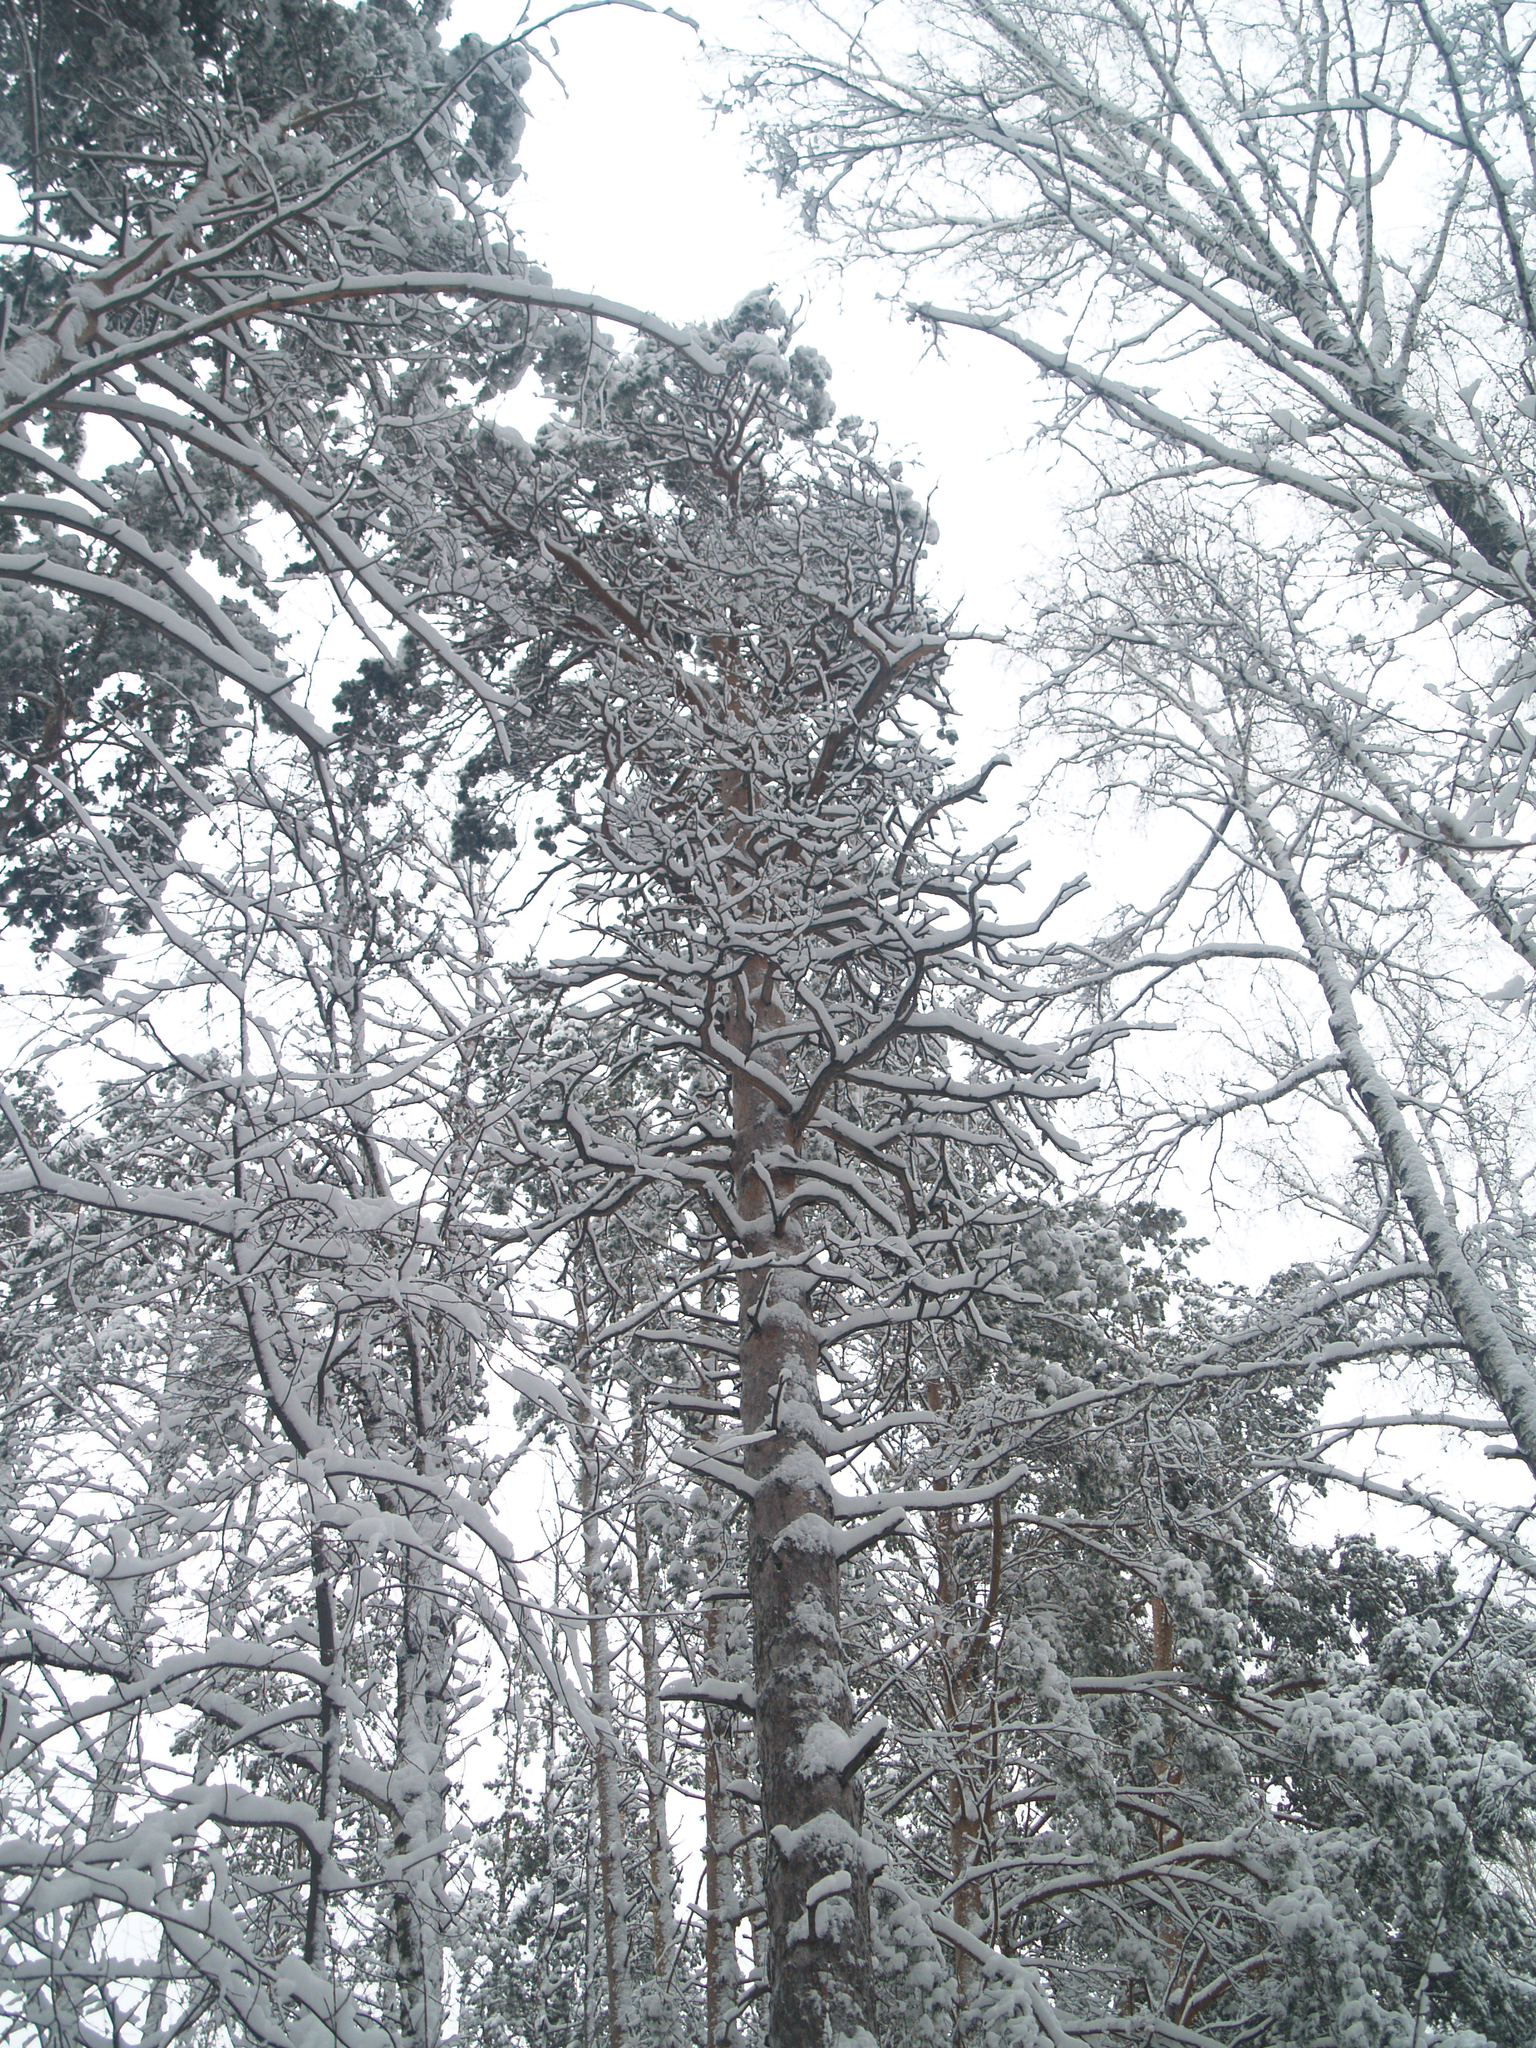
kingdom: Plantae
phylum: Tracheophyta
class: Pinopsida
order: Pinales
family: Pinaceae
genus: Pinus
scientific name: Pinus sylvestris
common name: Scots pine
